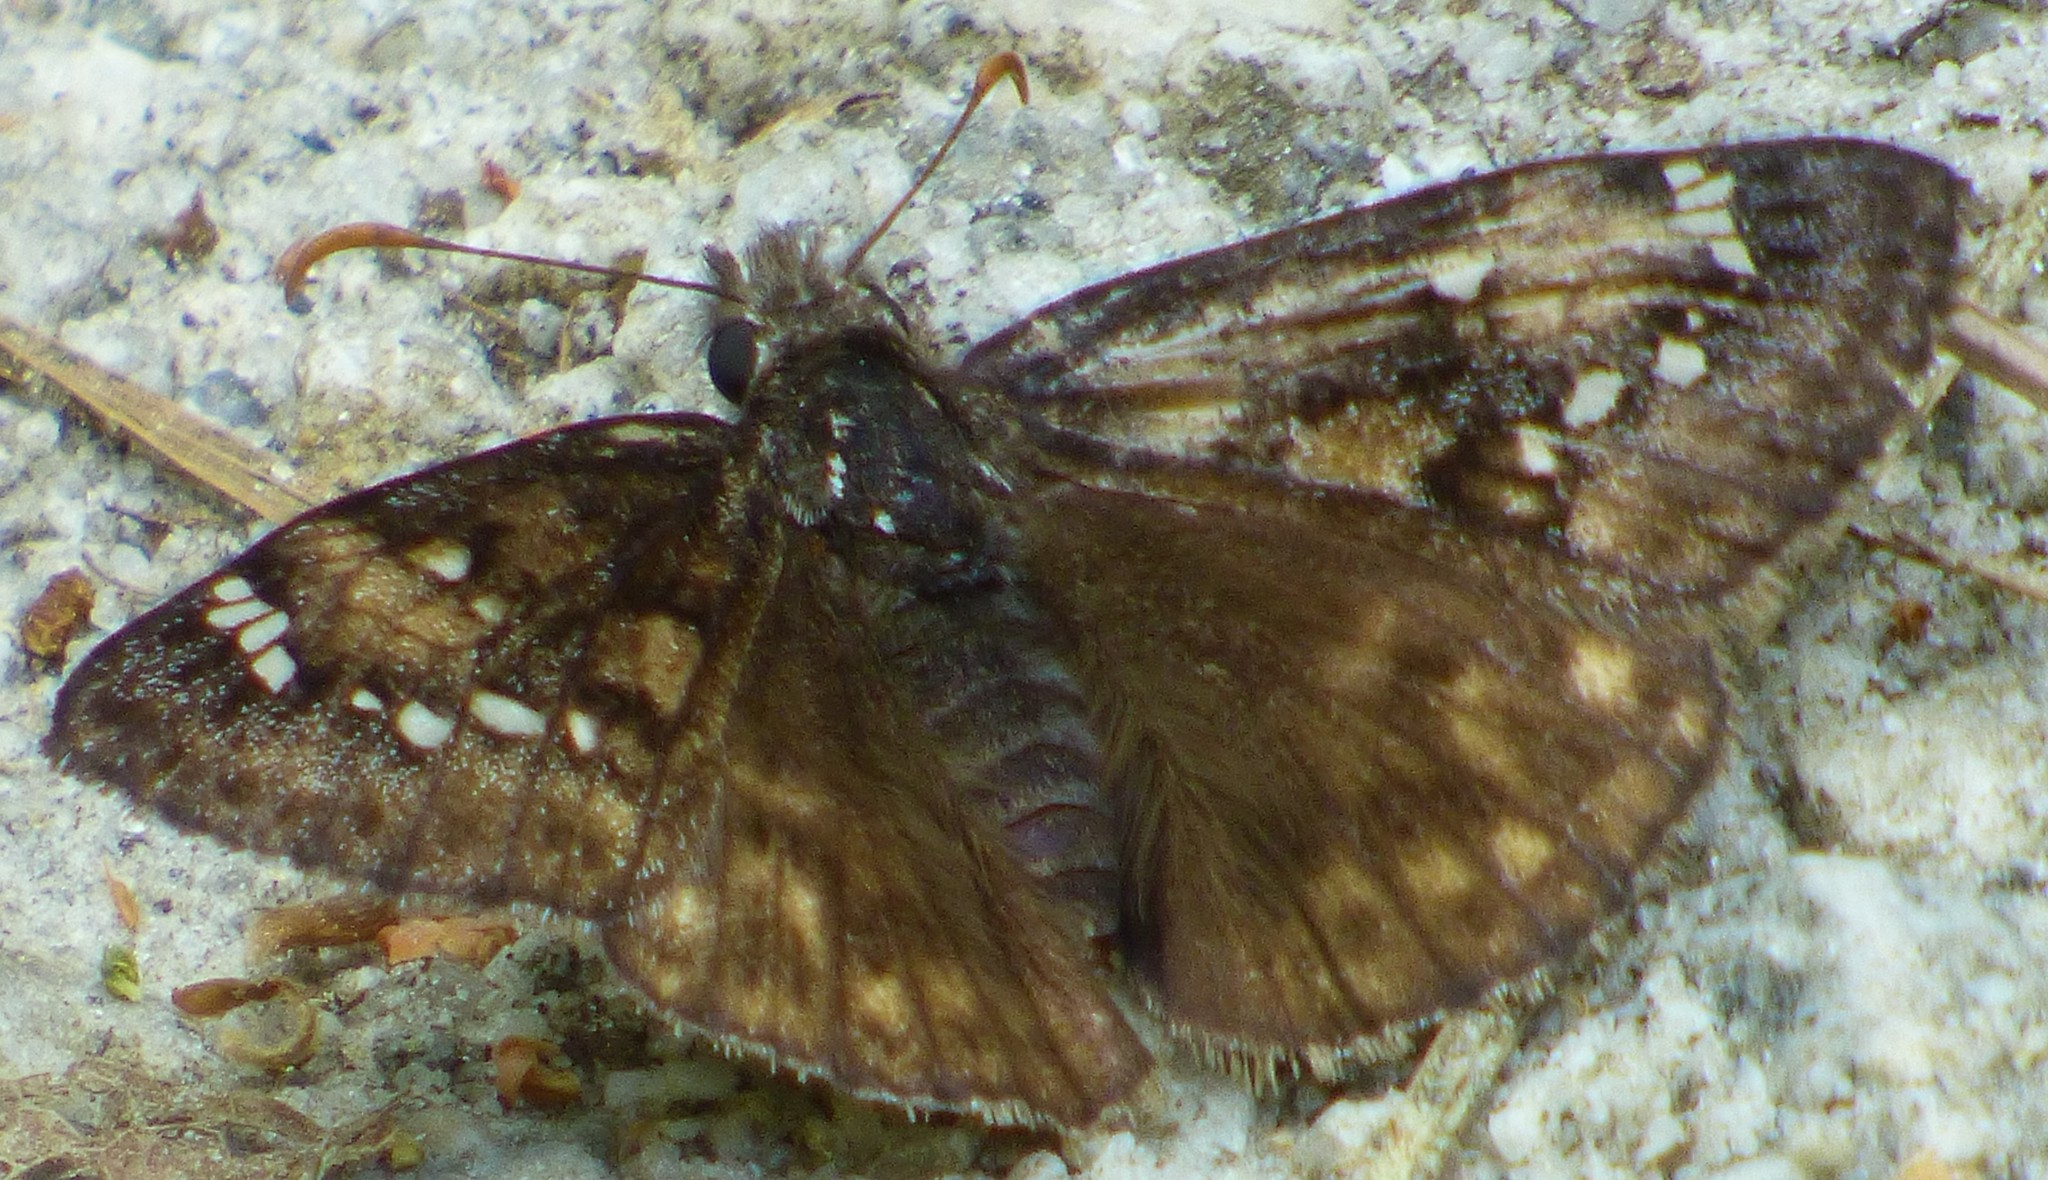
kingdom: Animalia
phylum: Arthropoda
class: Insecta
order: Lepidoptera
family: Hesperiidae
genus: Erynnis
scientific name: Erynnis juvenalis
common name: Juvenal's duskywing
